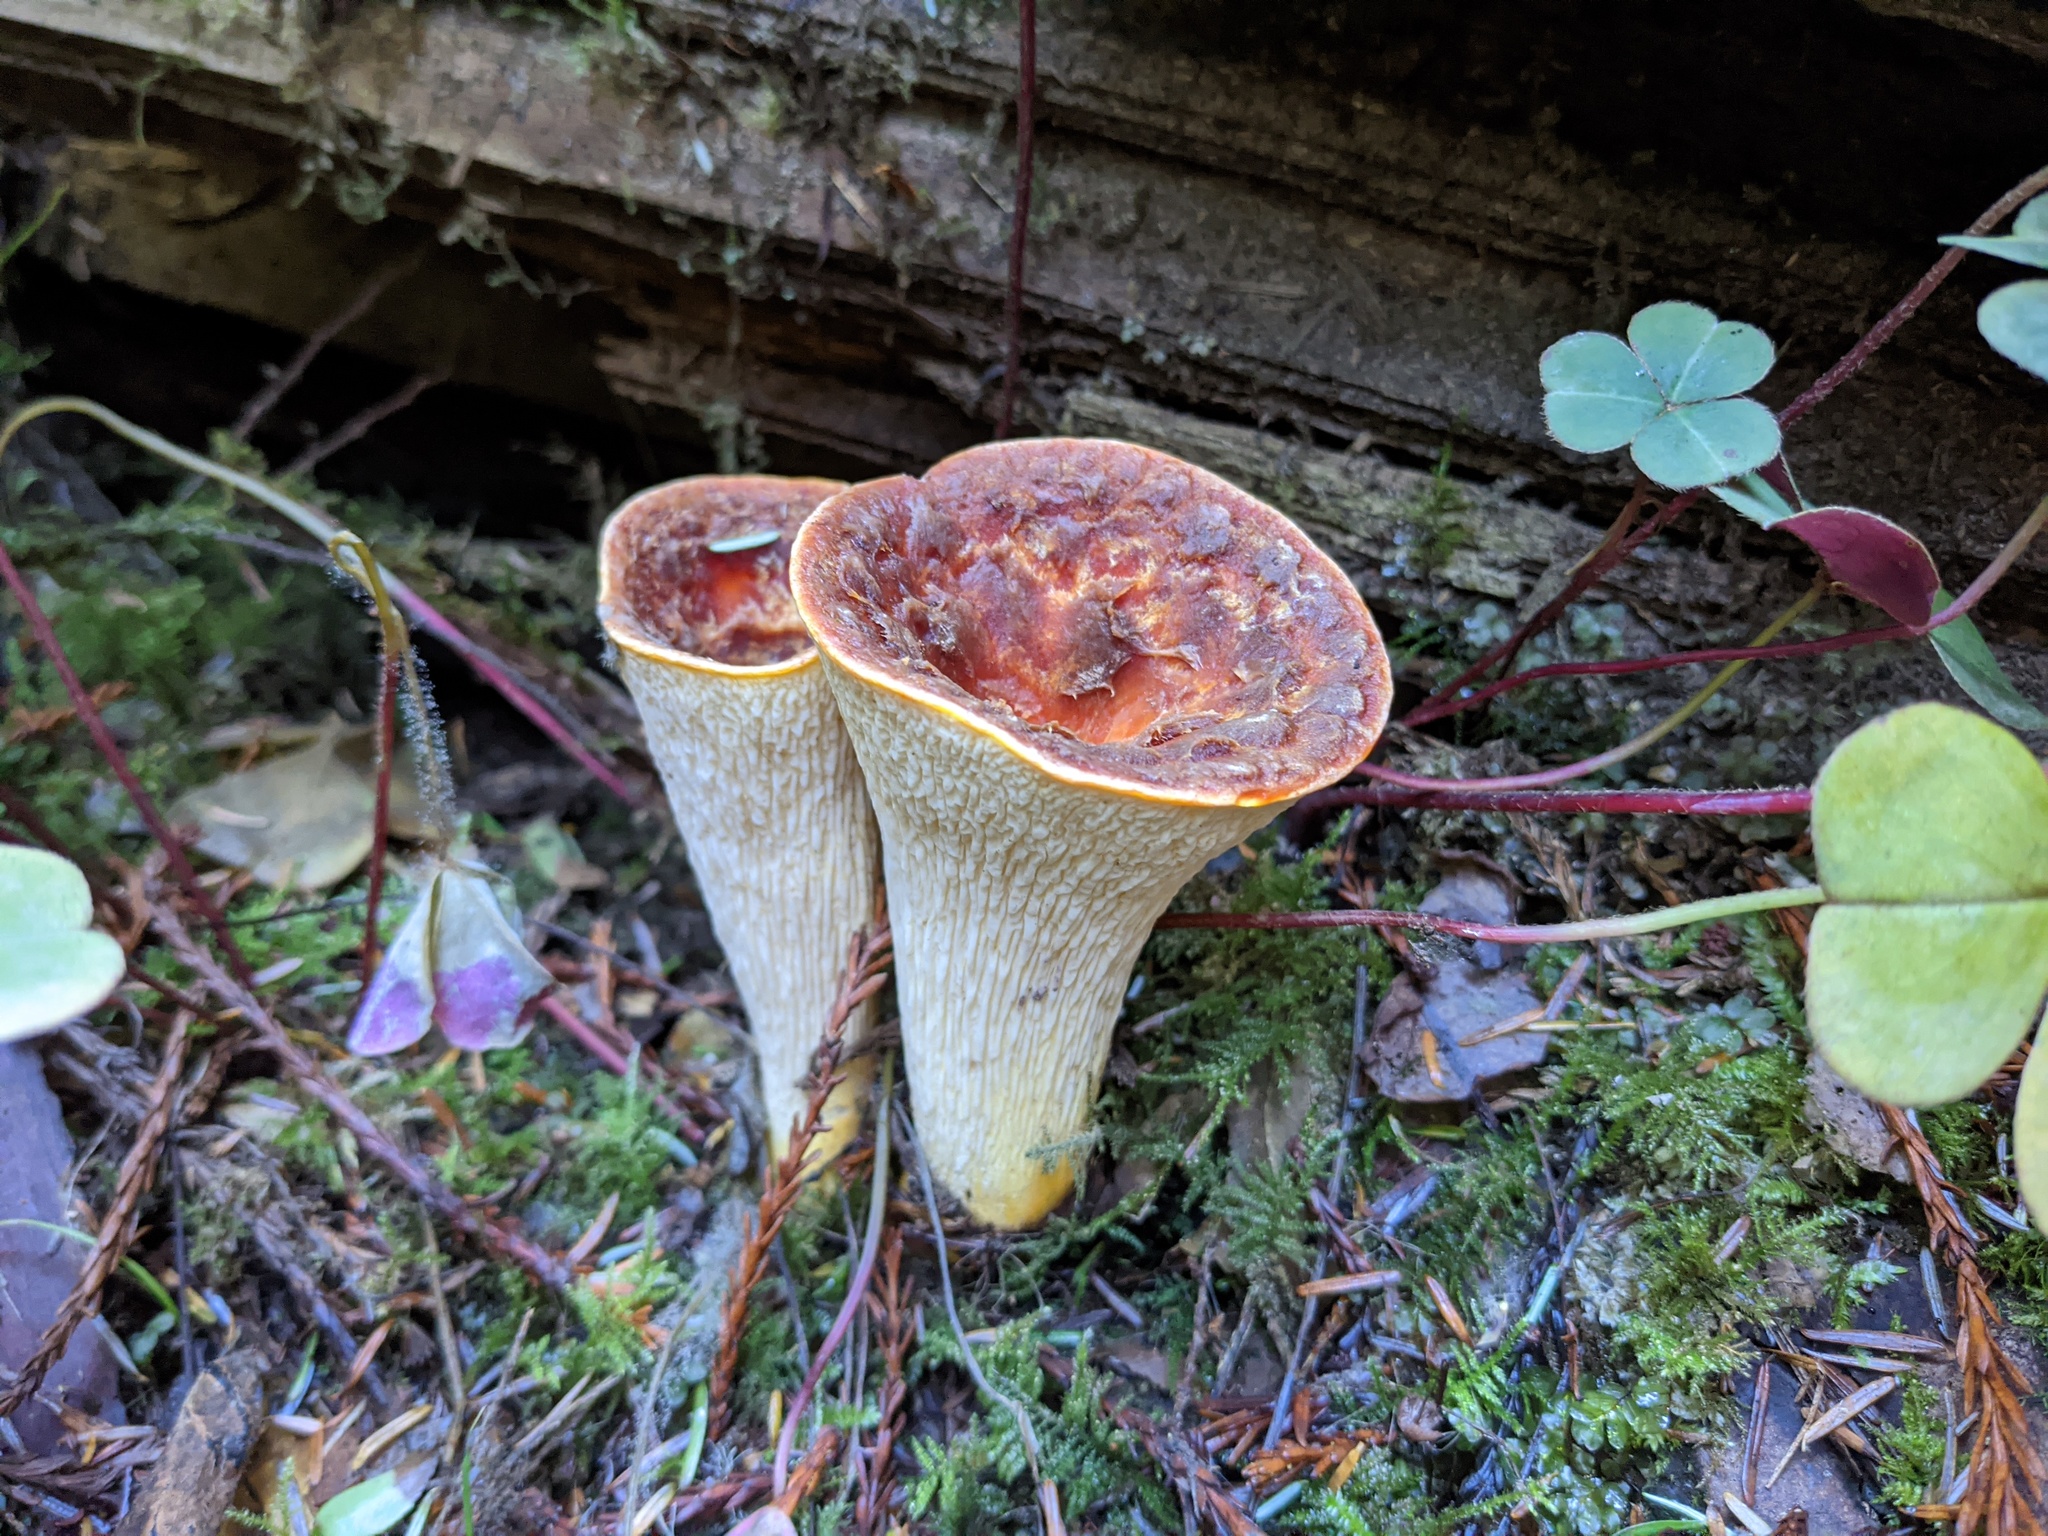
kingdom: Fungi
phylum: Basidiomycota
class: Agaricomycetes
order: Gomphales
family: Gomphaceae
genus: Turbinellus
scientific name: Turbinellus floccosus
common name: Scaly chanterelle
